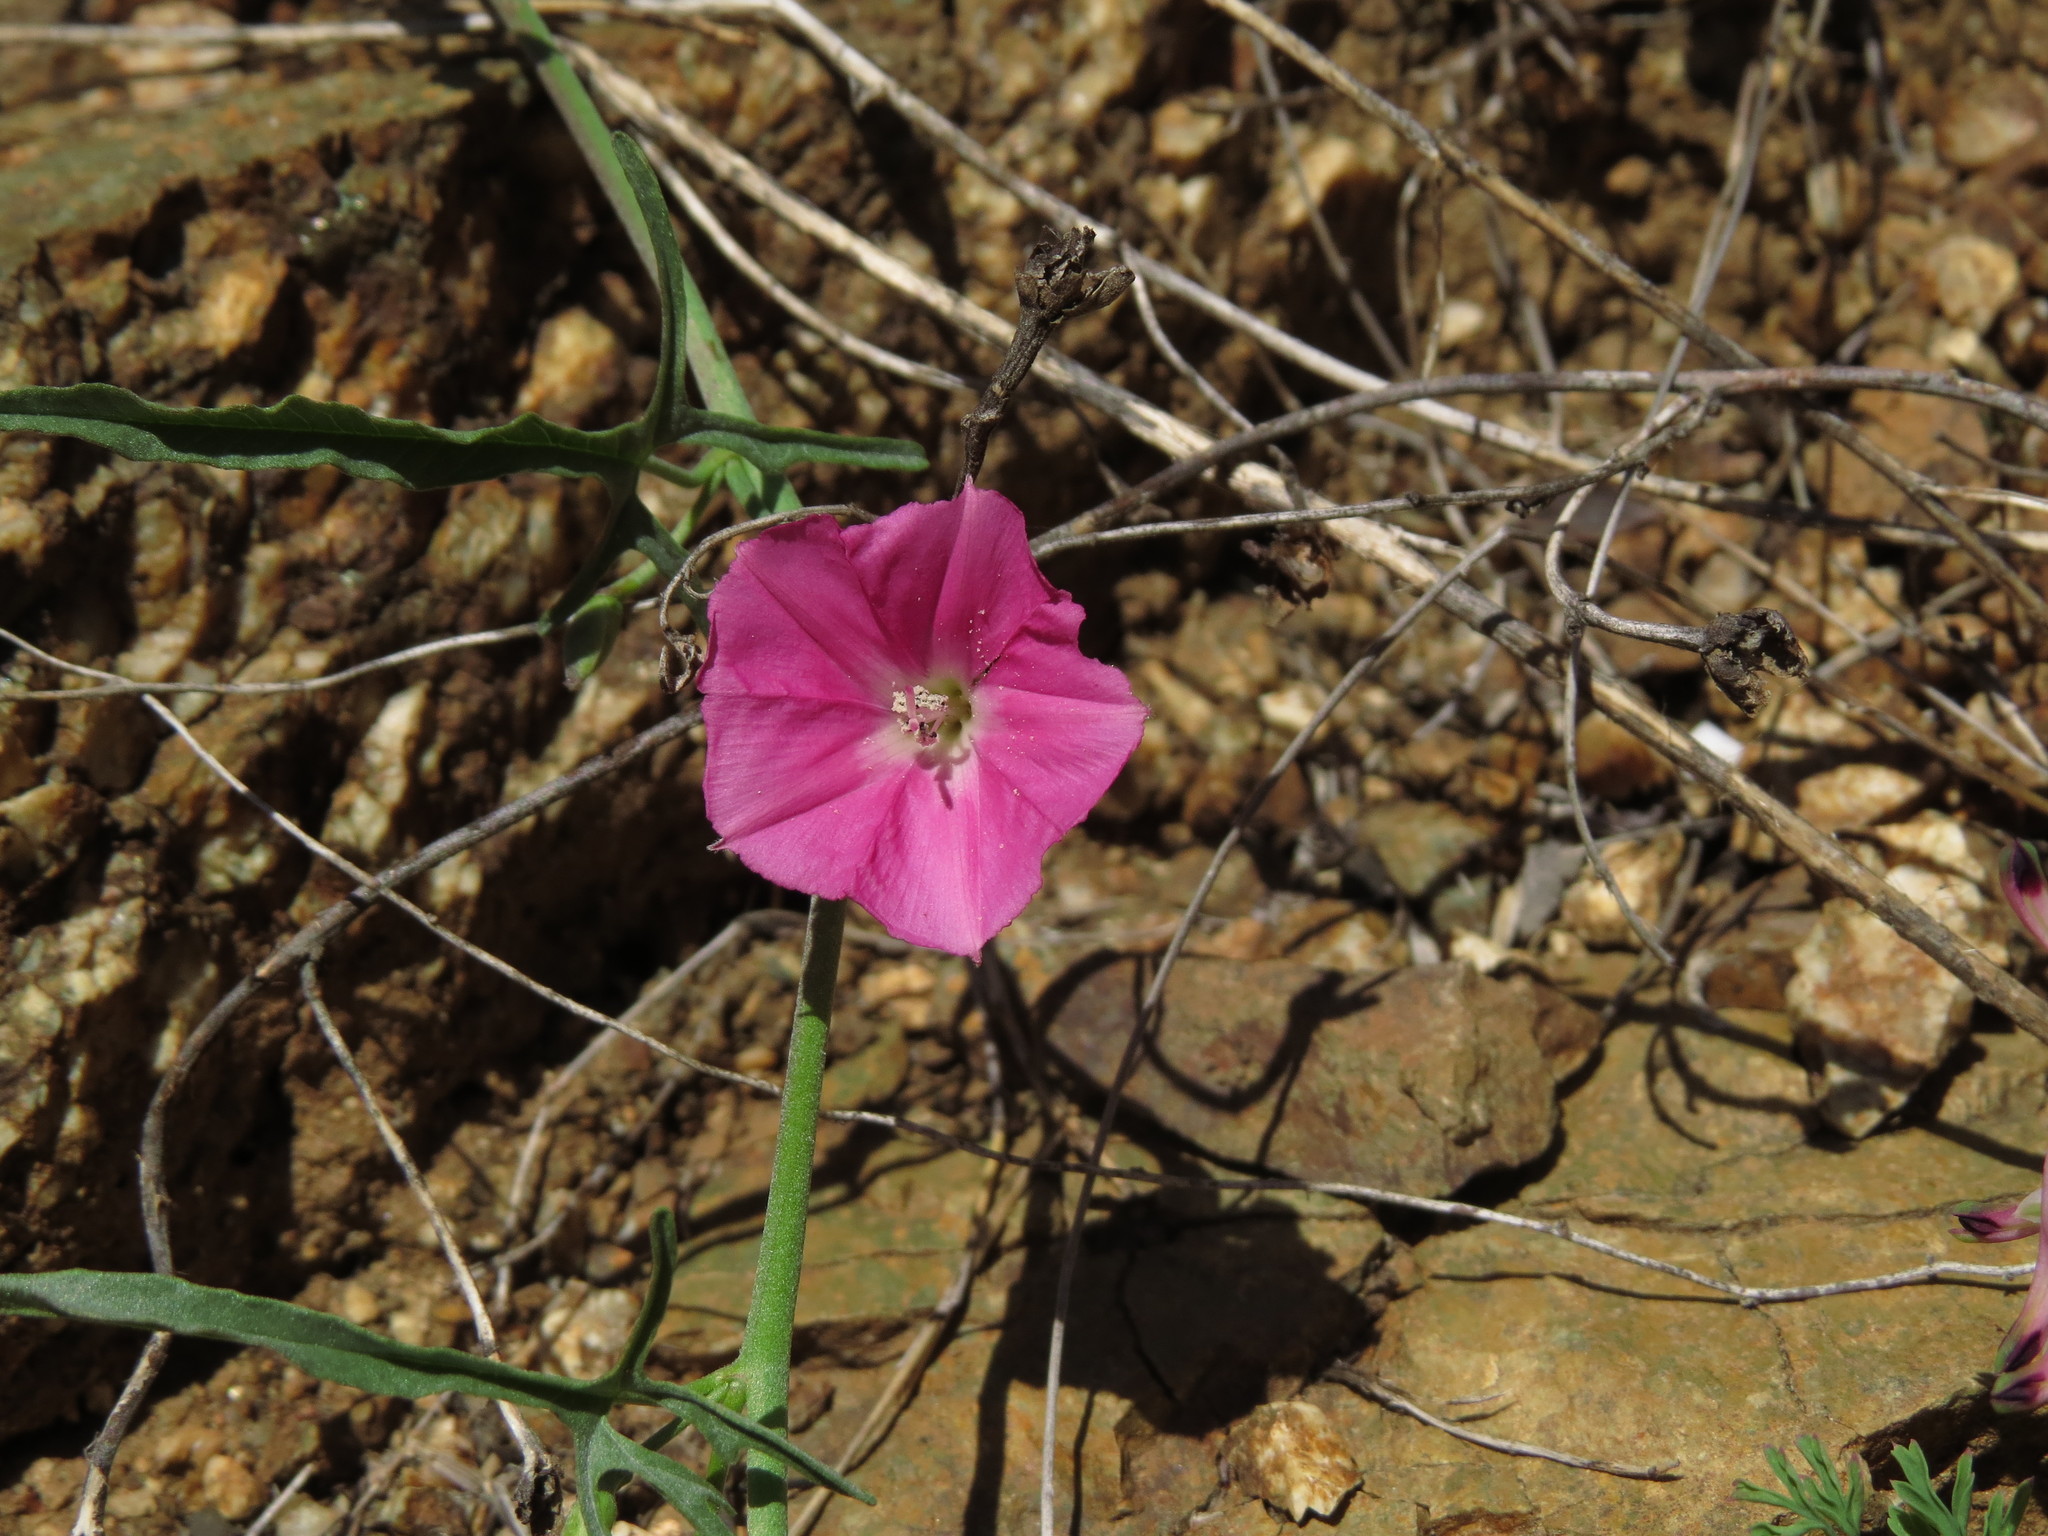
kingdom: Plantae
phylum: Tracheophyta
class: Magnoliopsida
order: Solanales
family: Convolvulaceae
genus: Convolvulus
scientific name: Convolvulus chilensis
